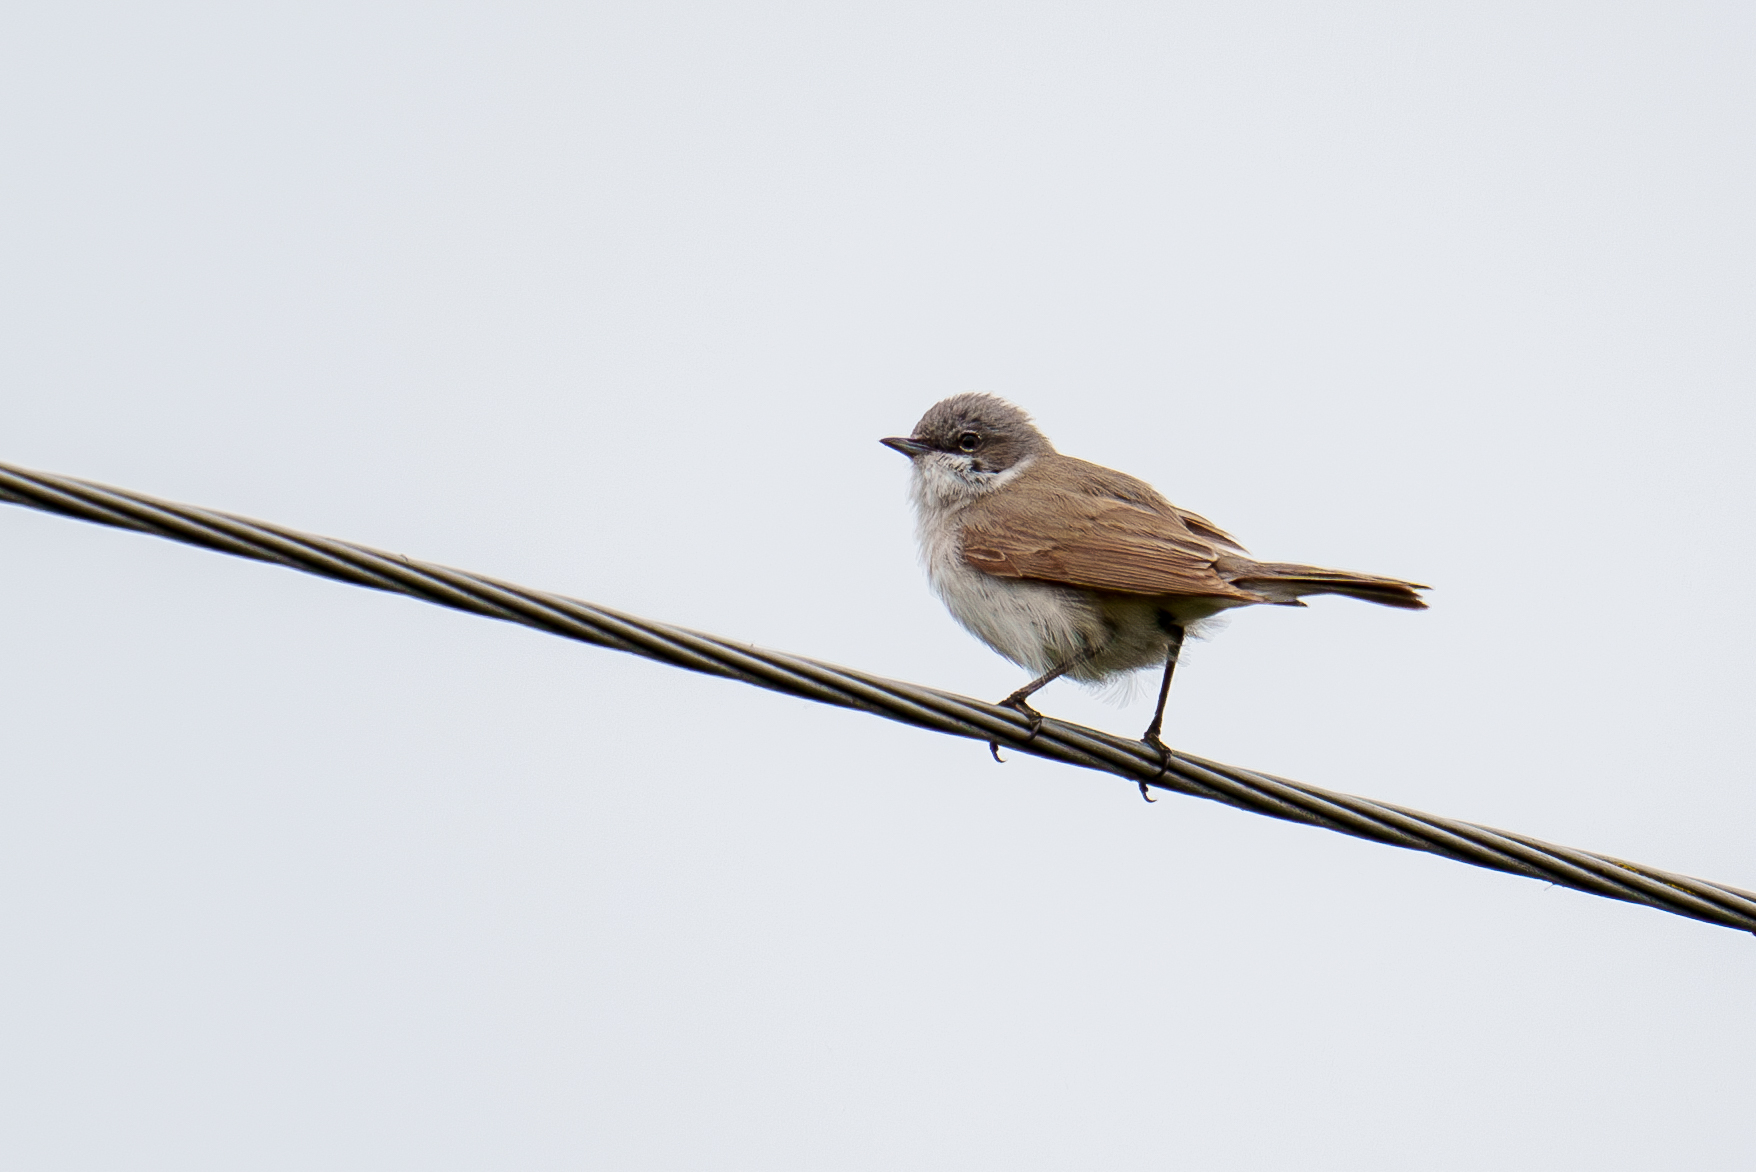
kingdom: Animalia
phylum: Chordata
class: Aves
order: Passeriformes
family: Sylviidae
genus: Sylvia
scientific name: Sylvia curruca
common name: Lesser whitethroat
